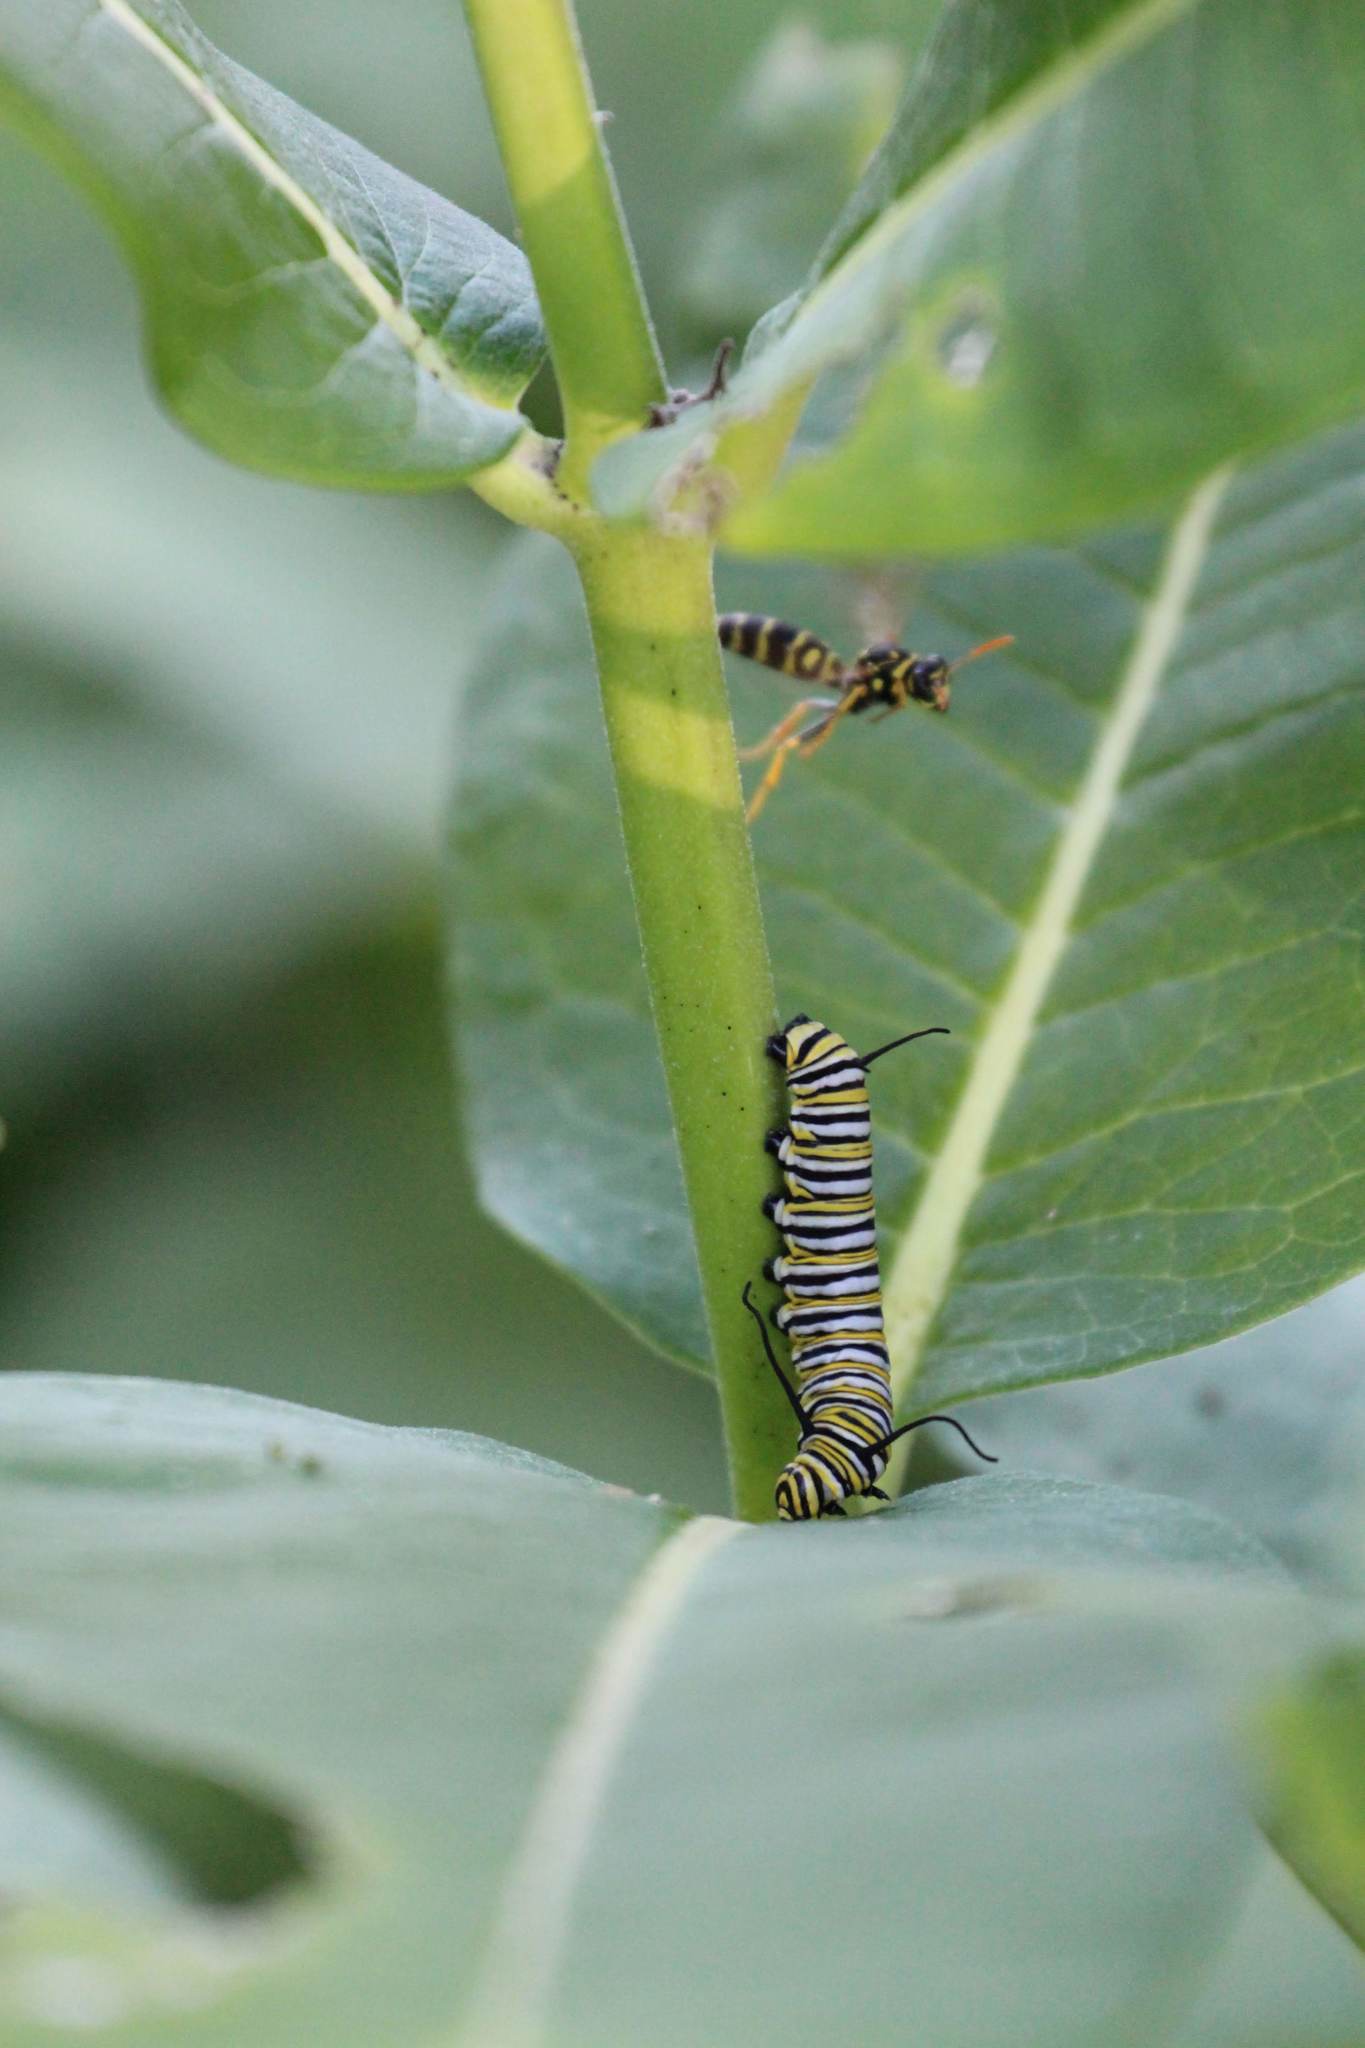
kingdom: Animalia
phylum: Arthropoda
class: Insecta
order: Hymenoptera
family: Eumenidae
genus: Polistes
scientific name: Polistes dominula
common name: Paper wasp
